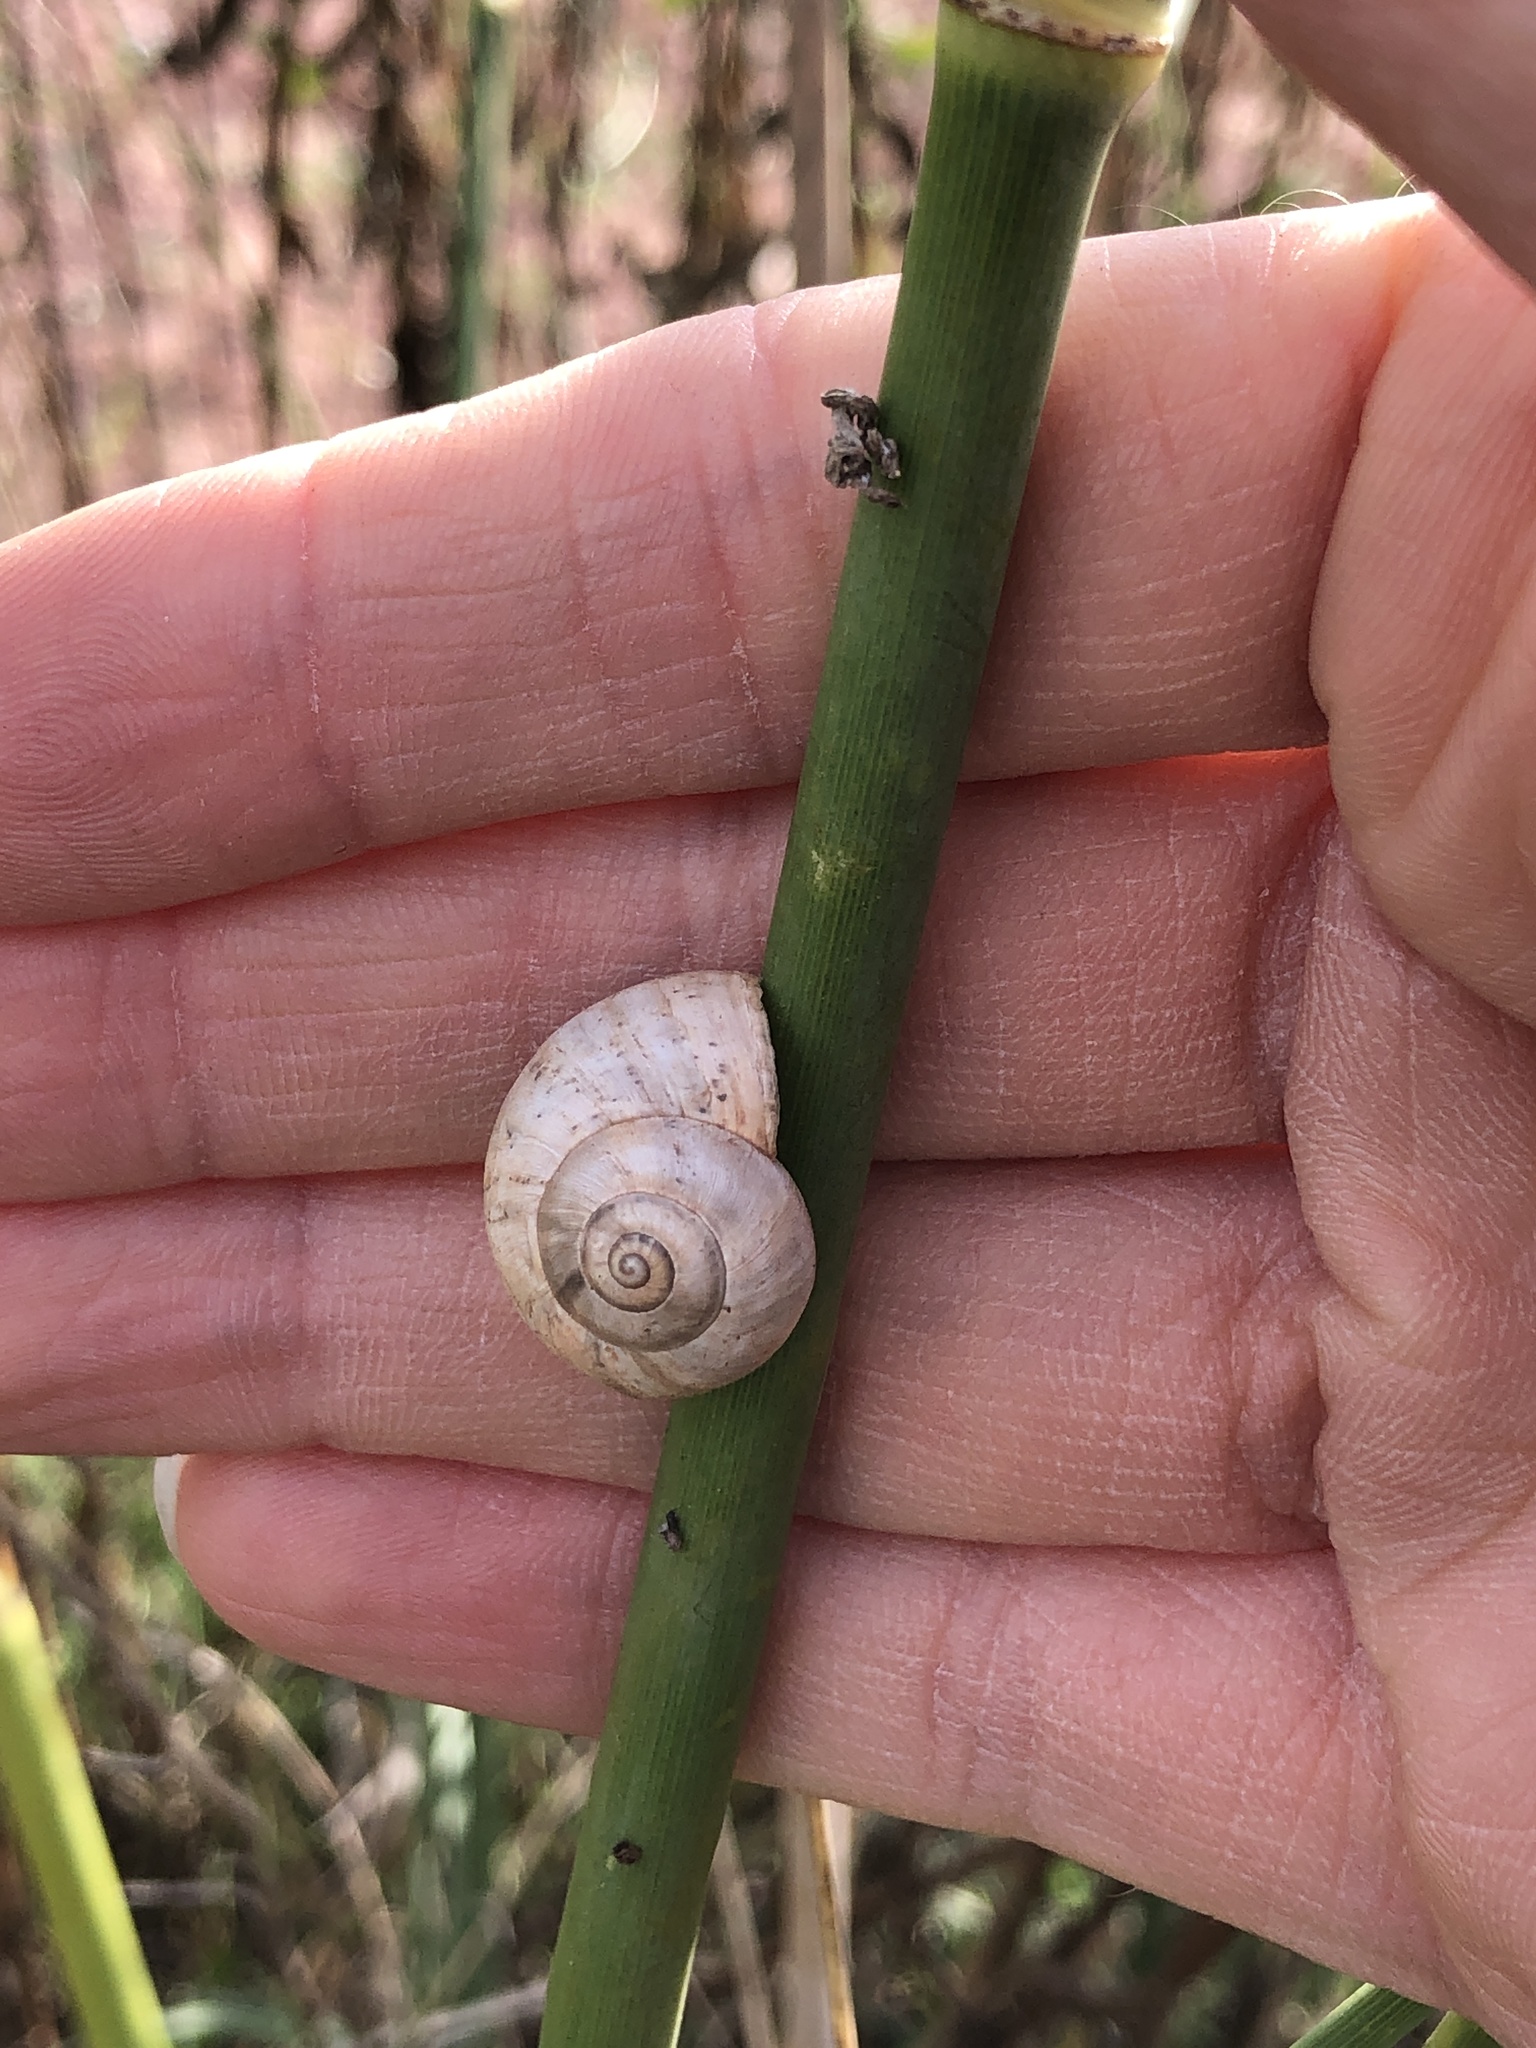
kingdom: Animalia
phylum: Mollusca
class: Gastropoda
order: Stylommatophora
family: Helicidae
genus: Theba
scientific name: Theba pisana
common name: White snail
